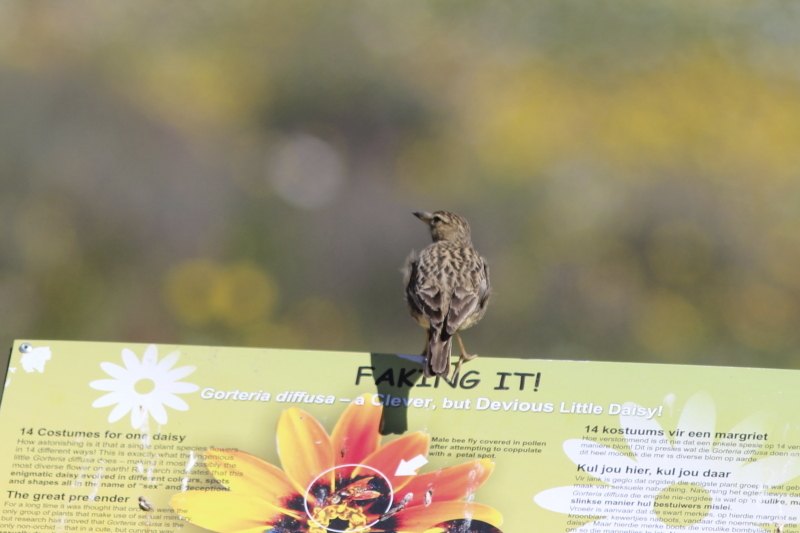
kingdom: Animalia
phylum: Chordata
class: Aves
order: Passeriformes
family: Alaudidae
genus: Galerida
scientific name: Galerida magnirostris
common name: Large-billed lark
